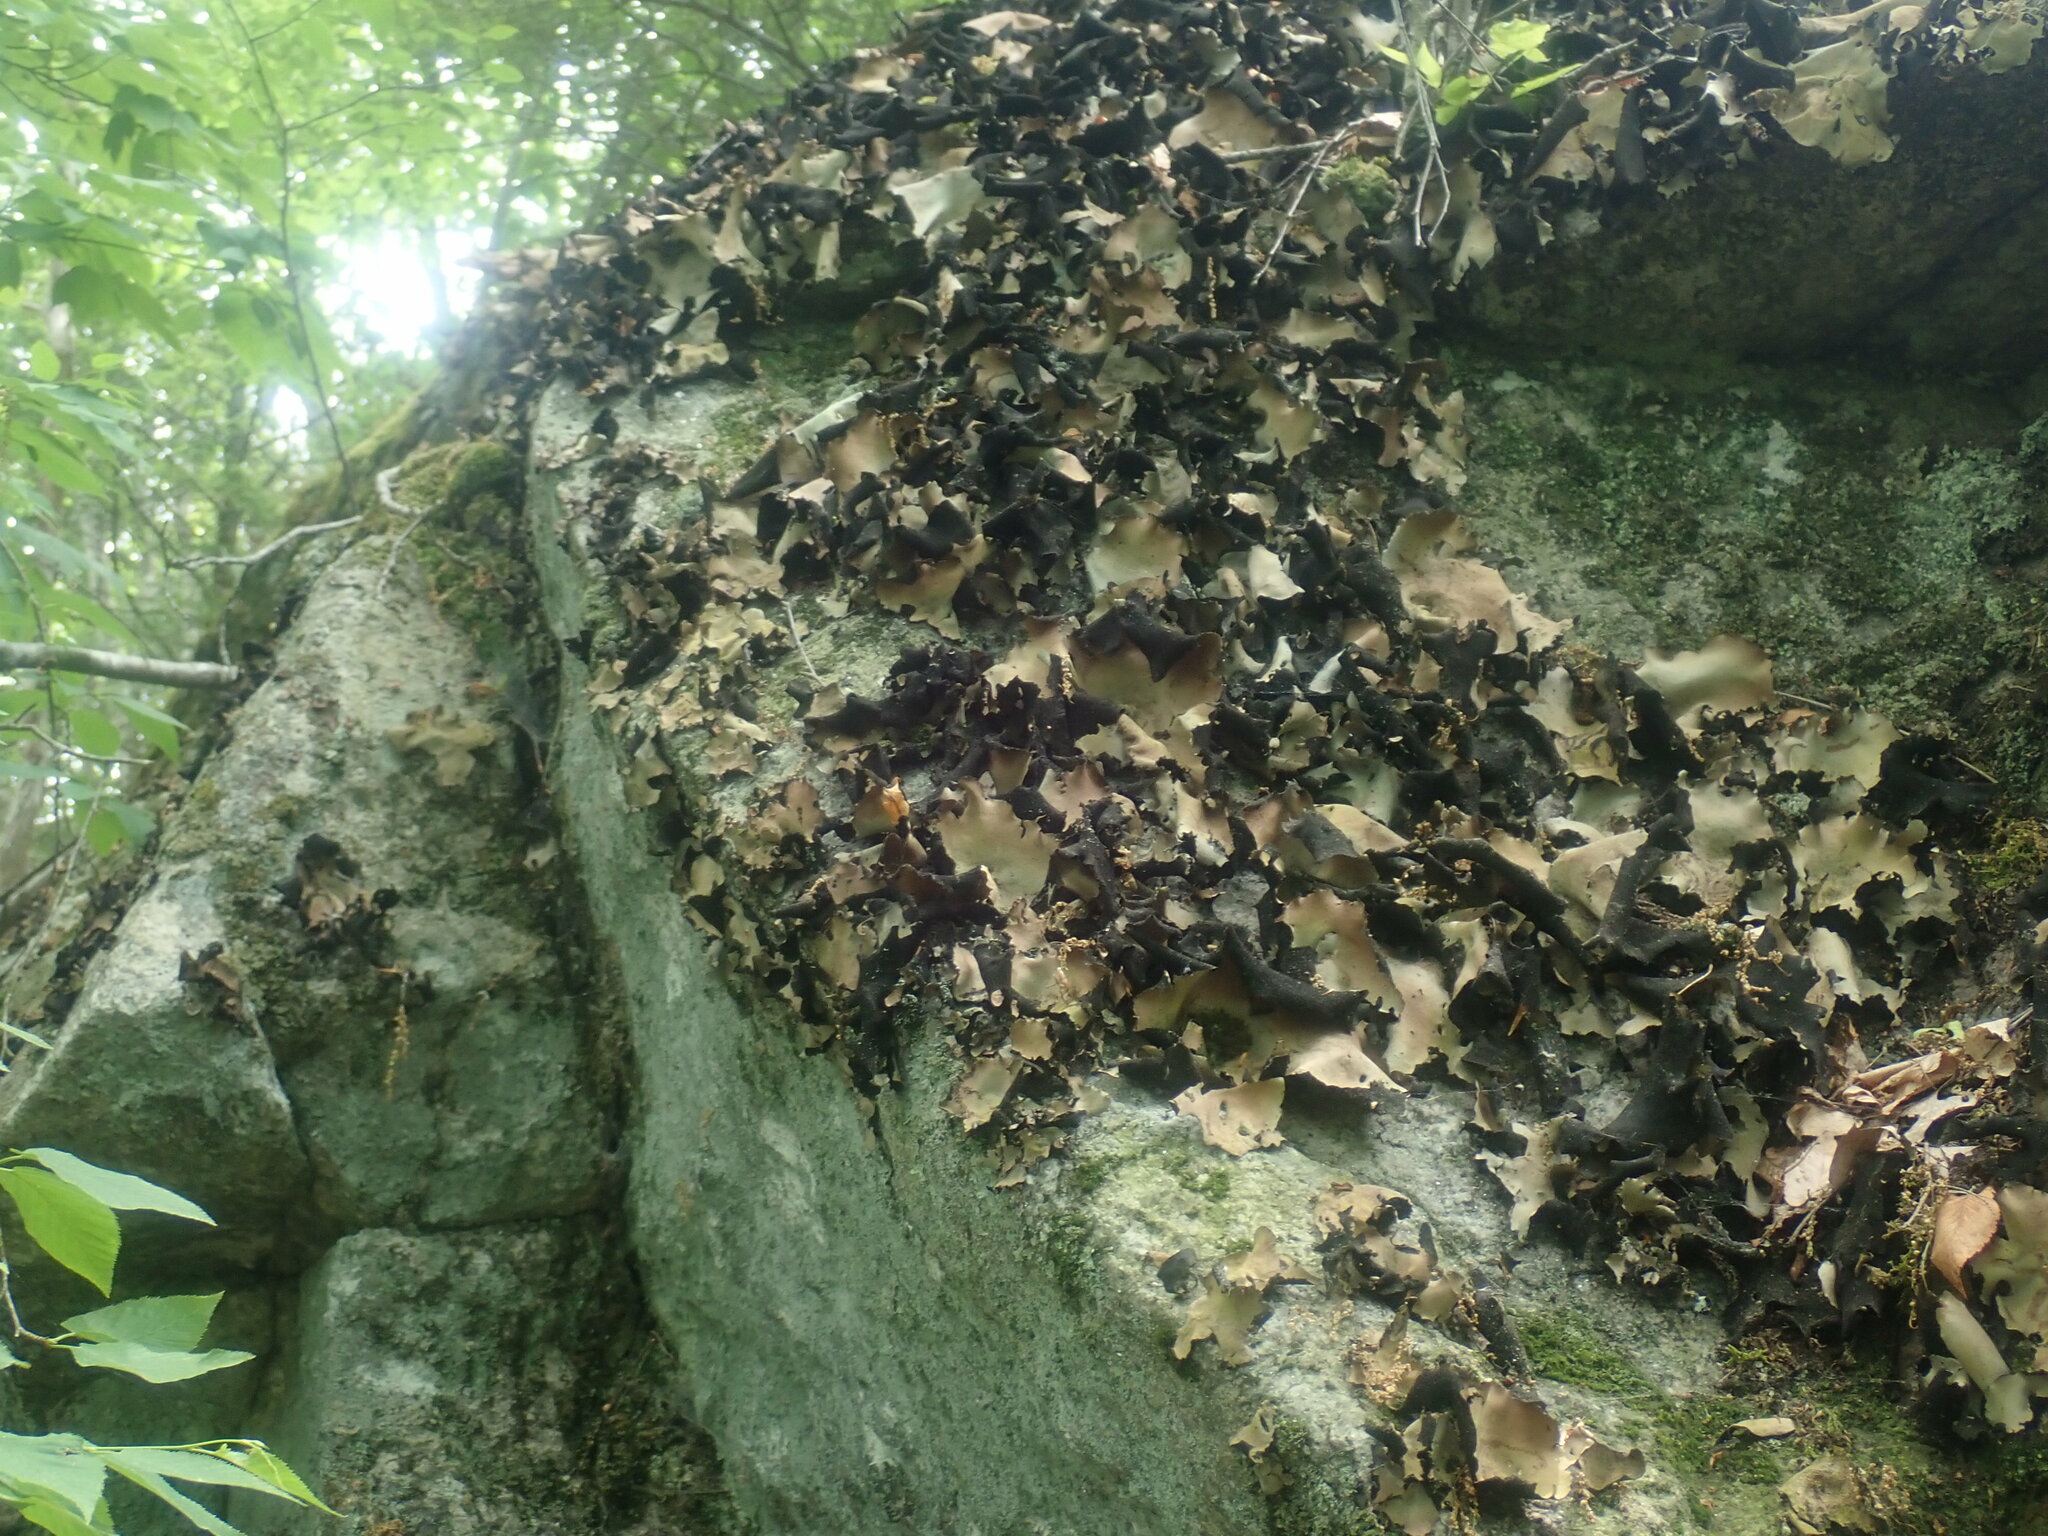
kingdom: Fungi
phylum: Ascomycota
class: Lecanoromycetes
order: Umbilicariales
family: Umbilicariaceae
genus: Umbilicaria
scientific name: Umbilicaria mammulata
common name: Smooth rock tripe
